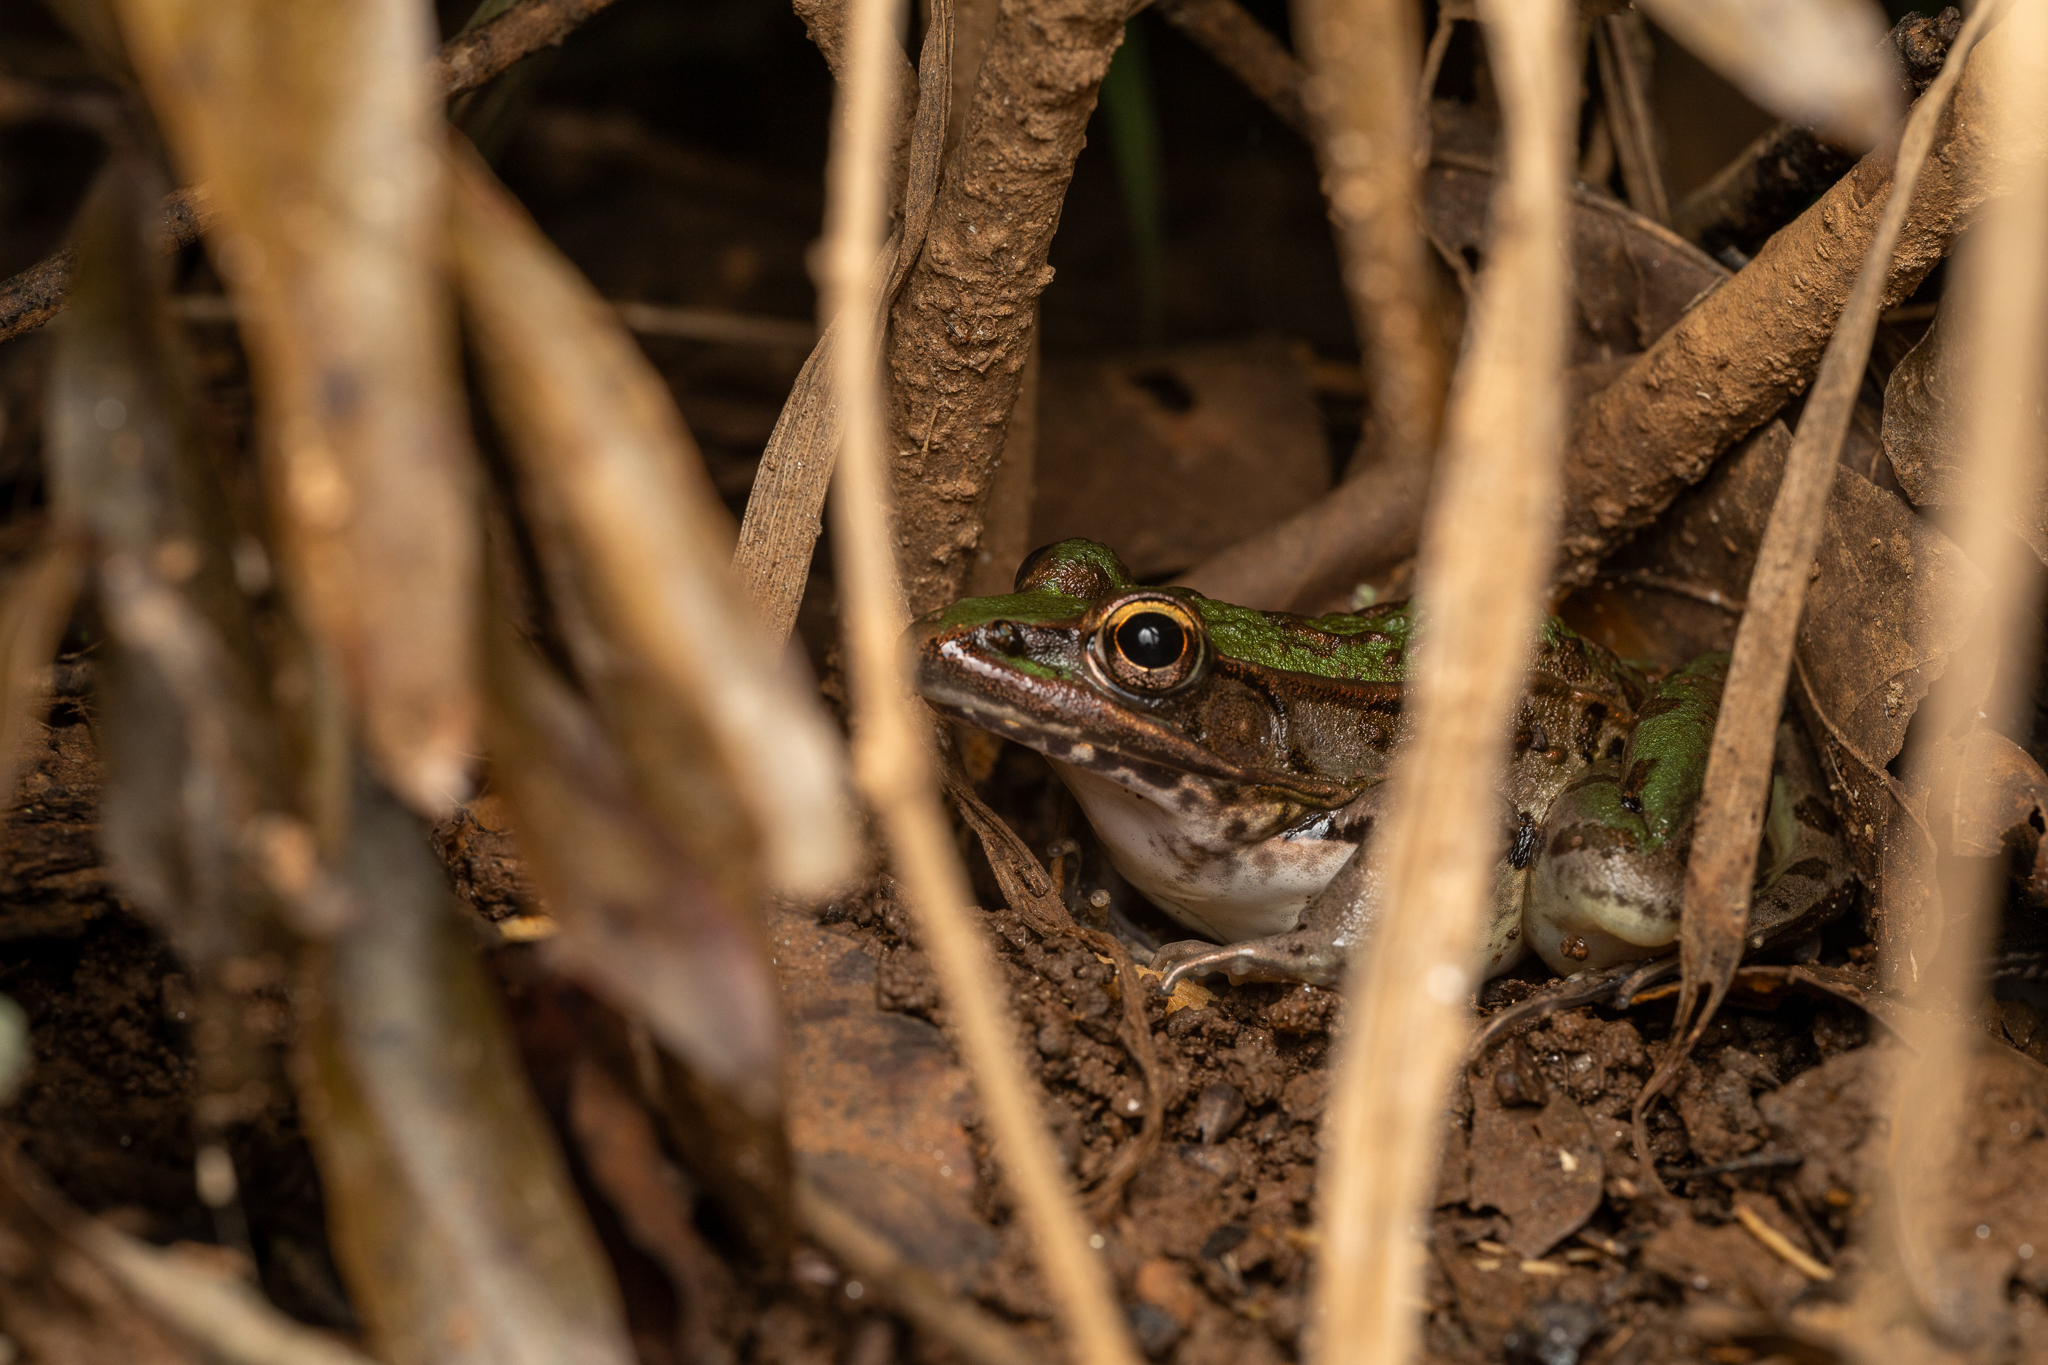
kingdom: Animalia
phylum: Chordata
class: Amphibia
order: Anura
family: Ranidae
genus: Lithobates
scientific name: Lithobates sphenocephalus
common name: Southern leopard frog
